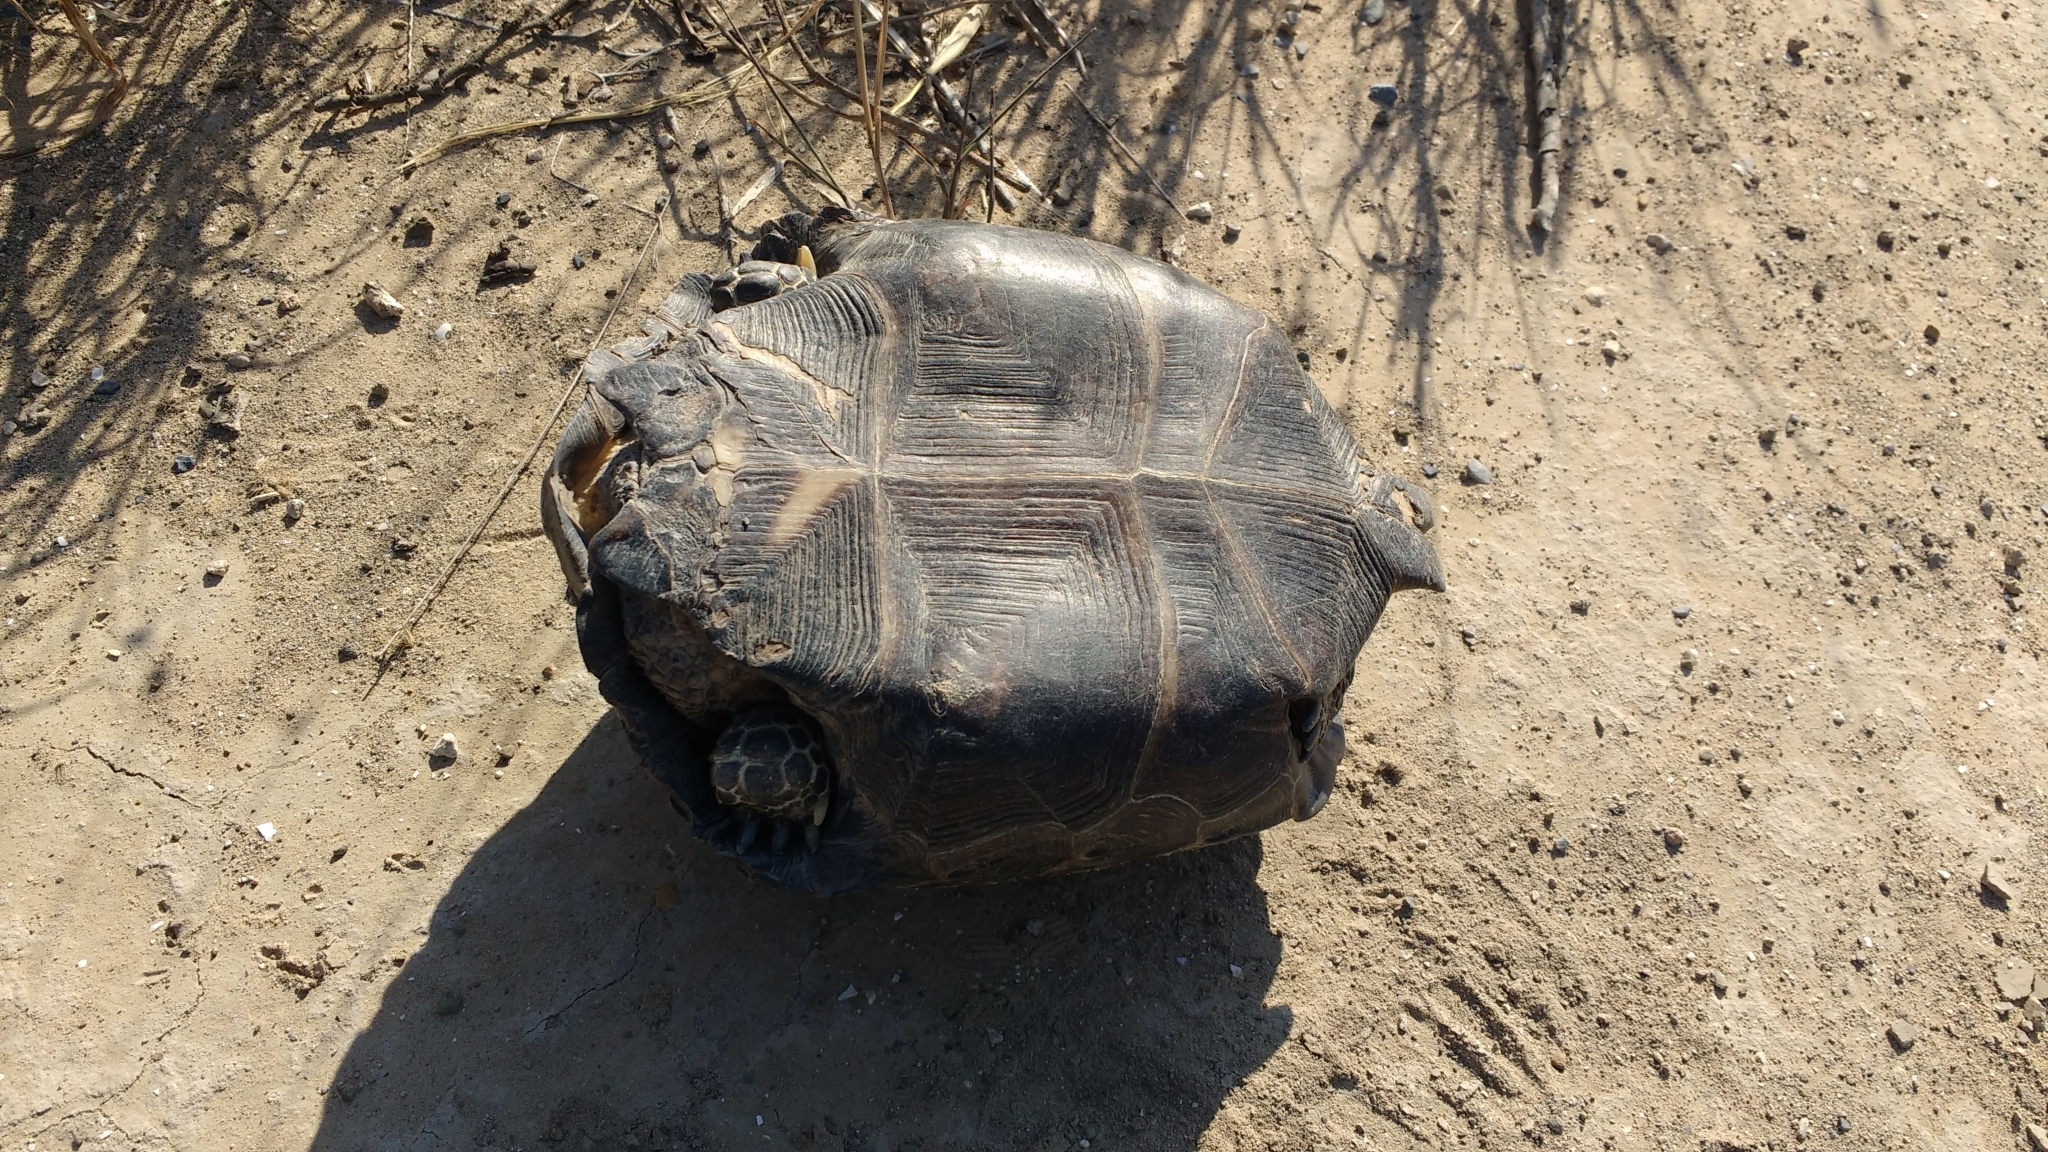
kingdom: Animalia
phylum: Chordata
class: Testudines
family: Testudinidae
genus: Gopherus
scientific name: Gopherus berlandieri
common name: Texas (gopher )tortoise
